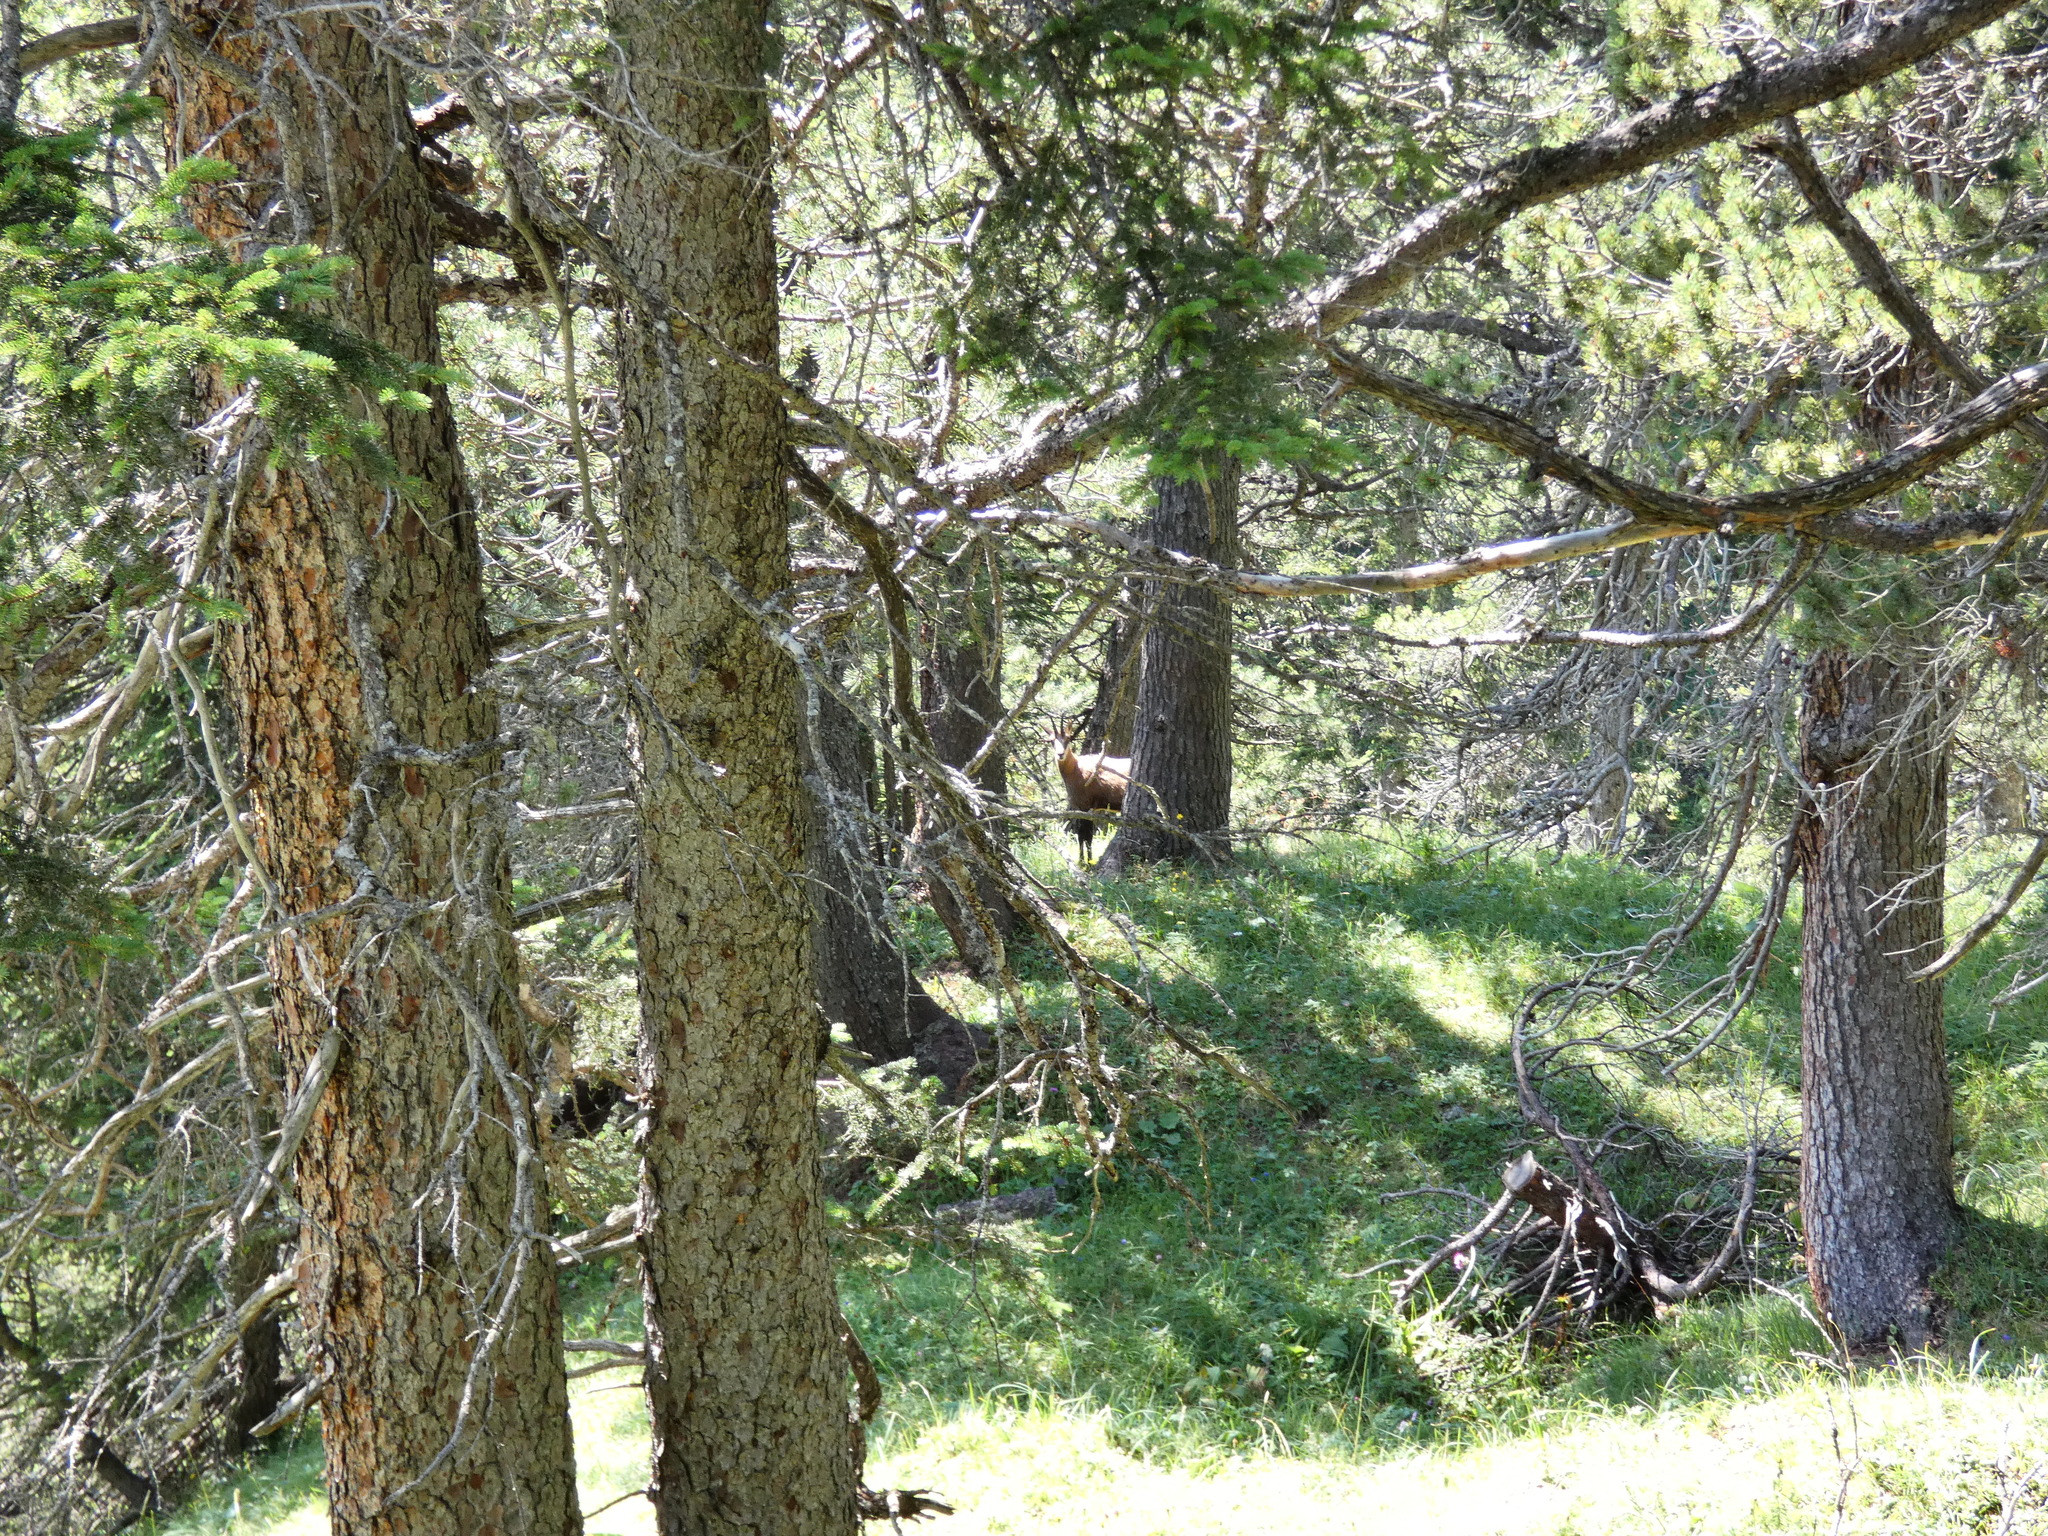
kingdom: Animalia
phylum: Chordata
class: Mammalia
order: Artiodactyla
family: Bovidae
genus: Rupicapra
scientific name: Rupicapra rupicapra
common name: Chamois
